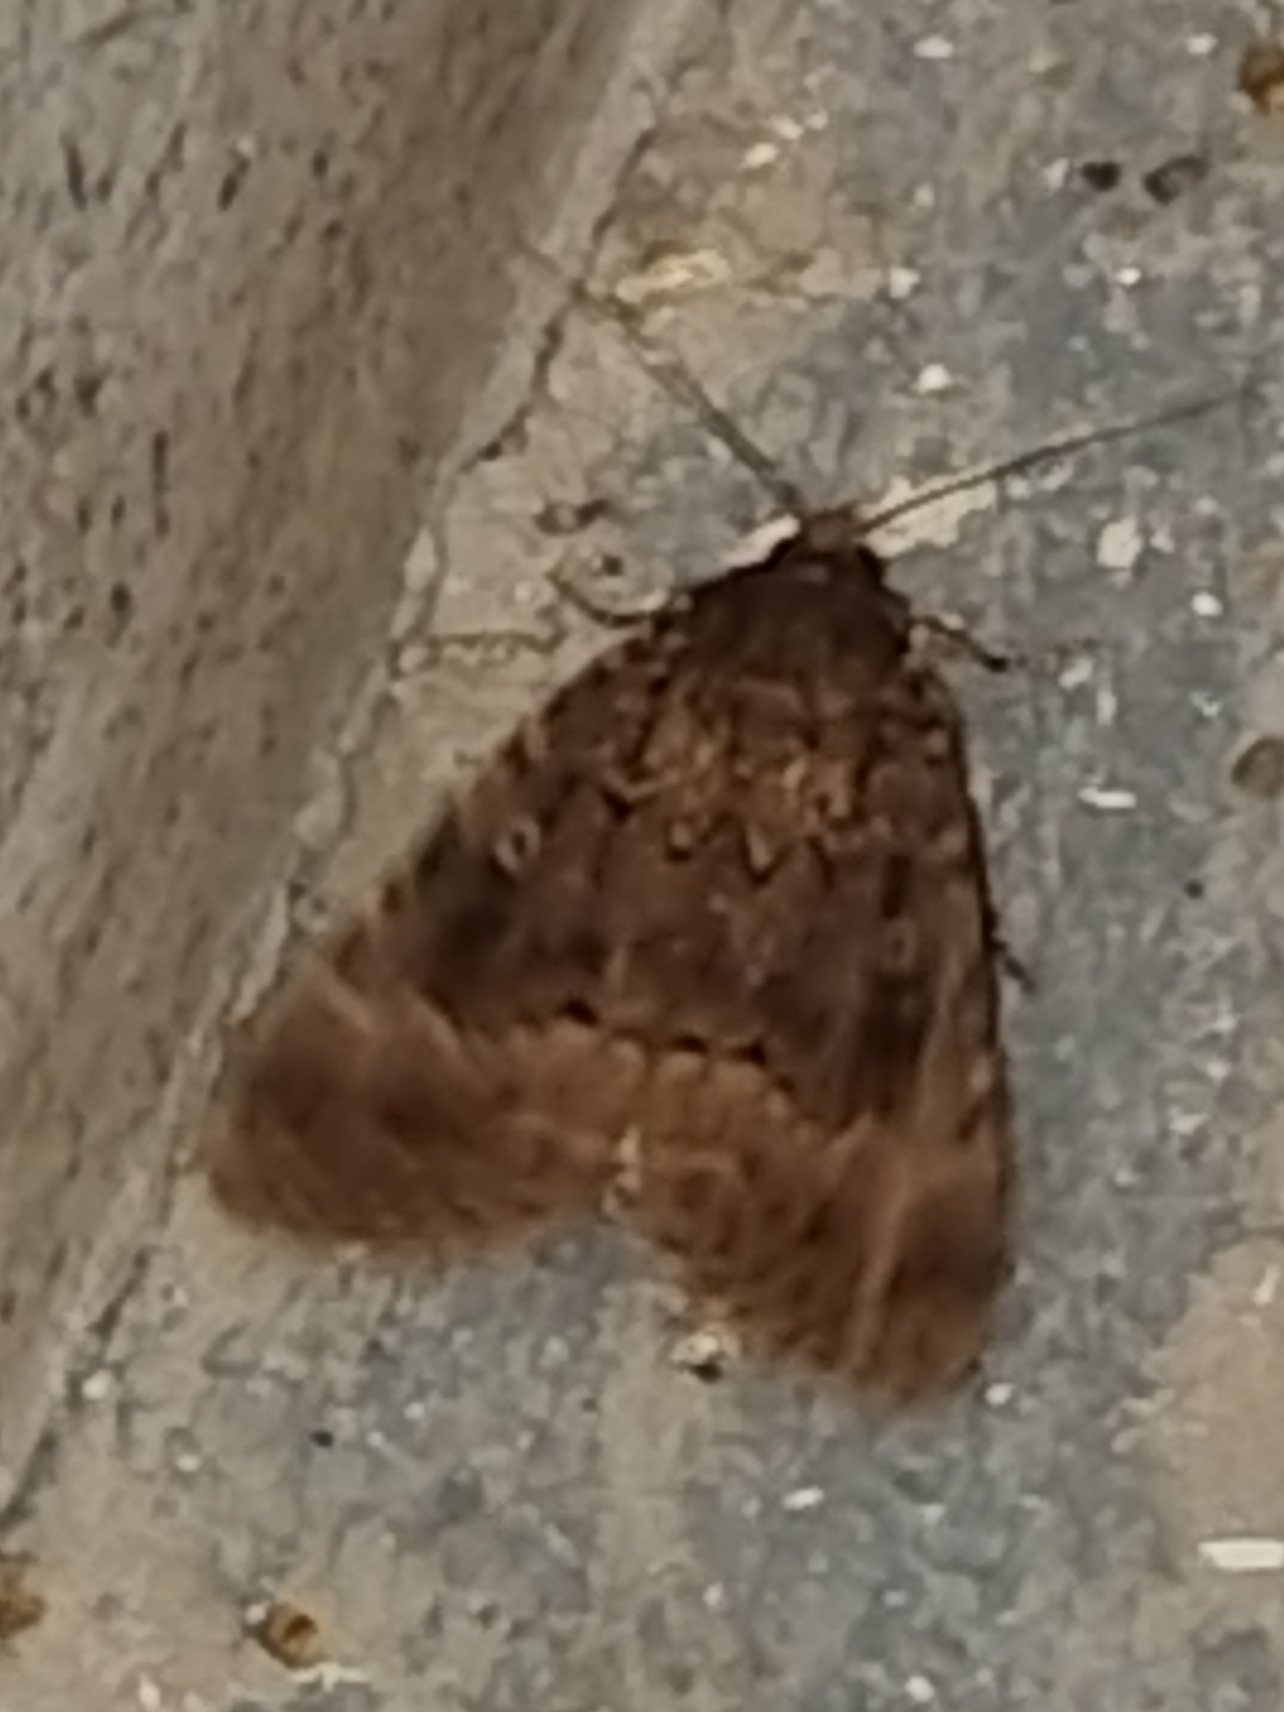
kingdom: Animalia
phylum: Arthropoda
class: Insecta
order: Lepidoptera
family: Noctuidae
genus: Amphipyra
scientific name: Amphipyra berbera
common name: Svensson's copper underwing
